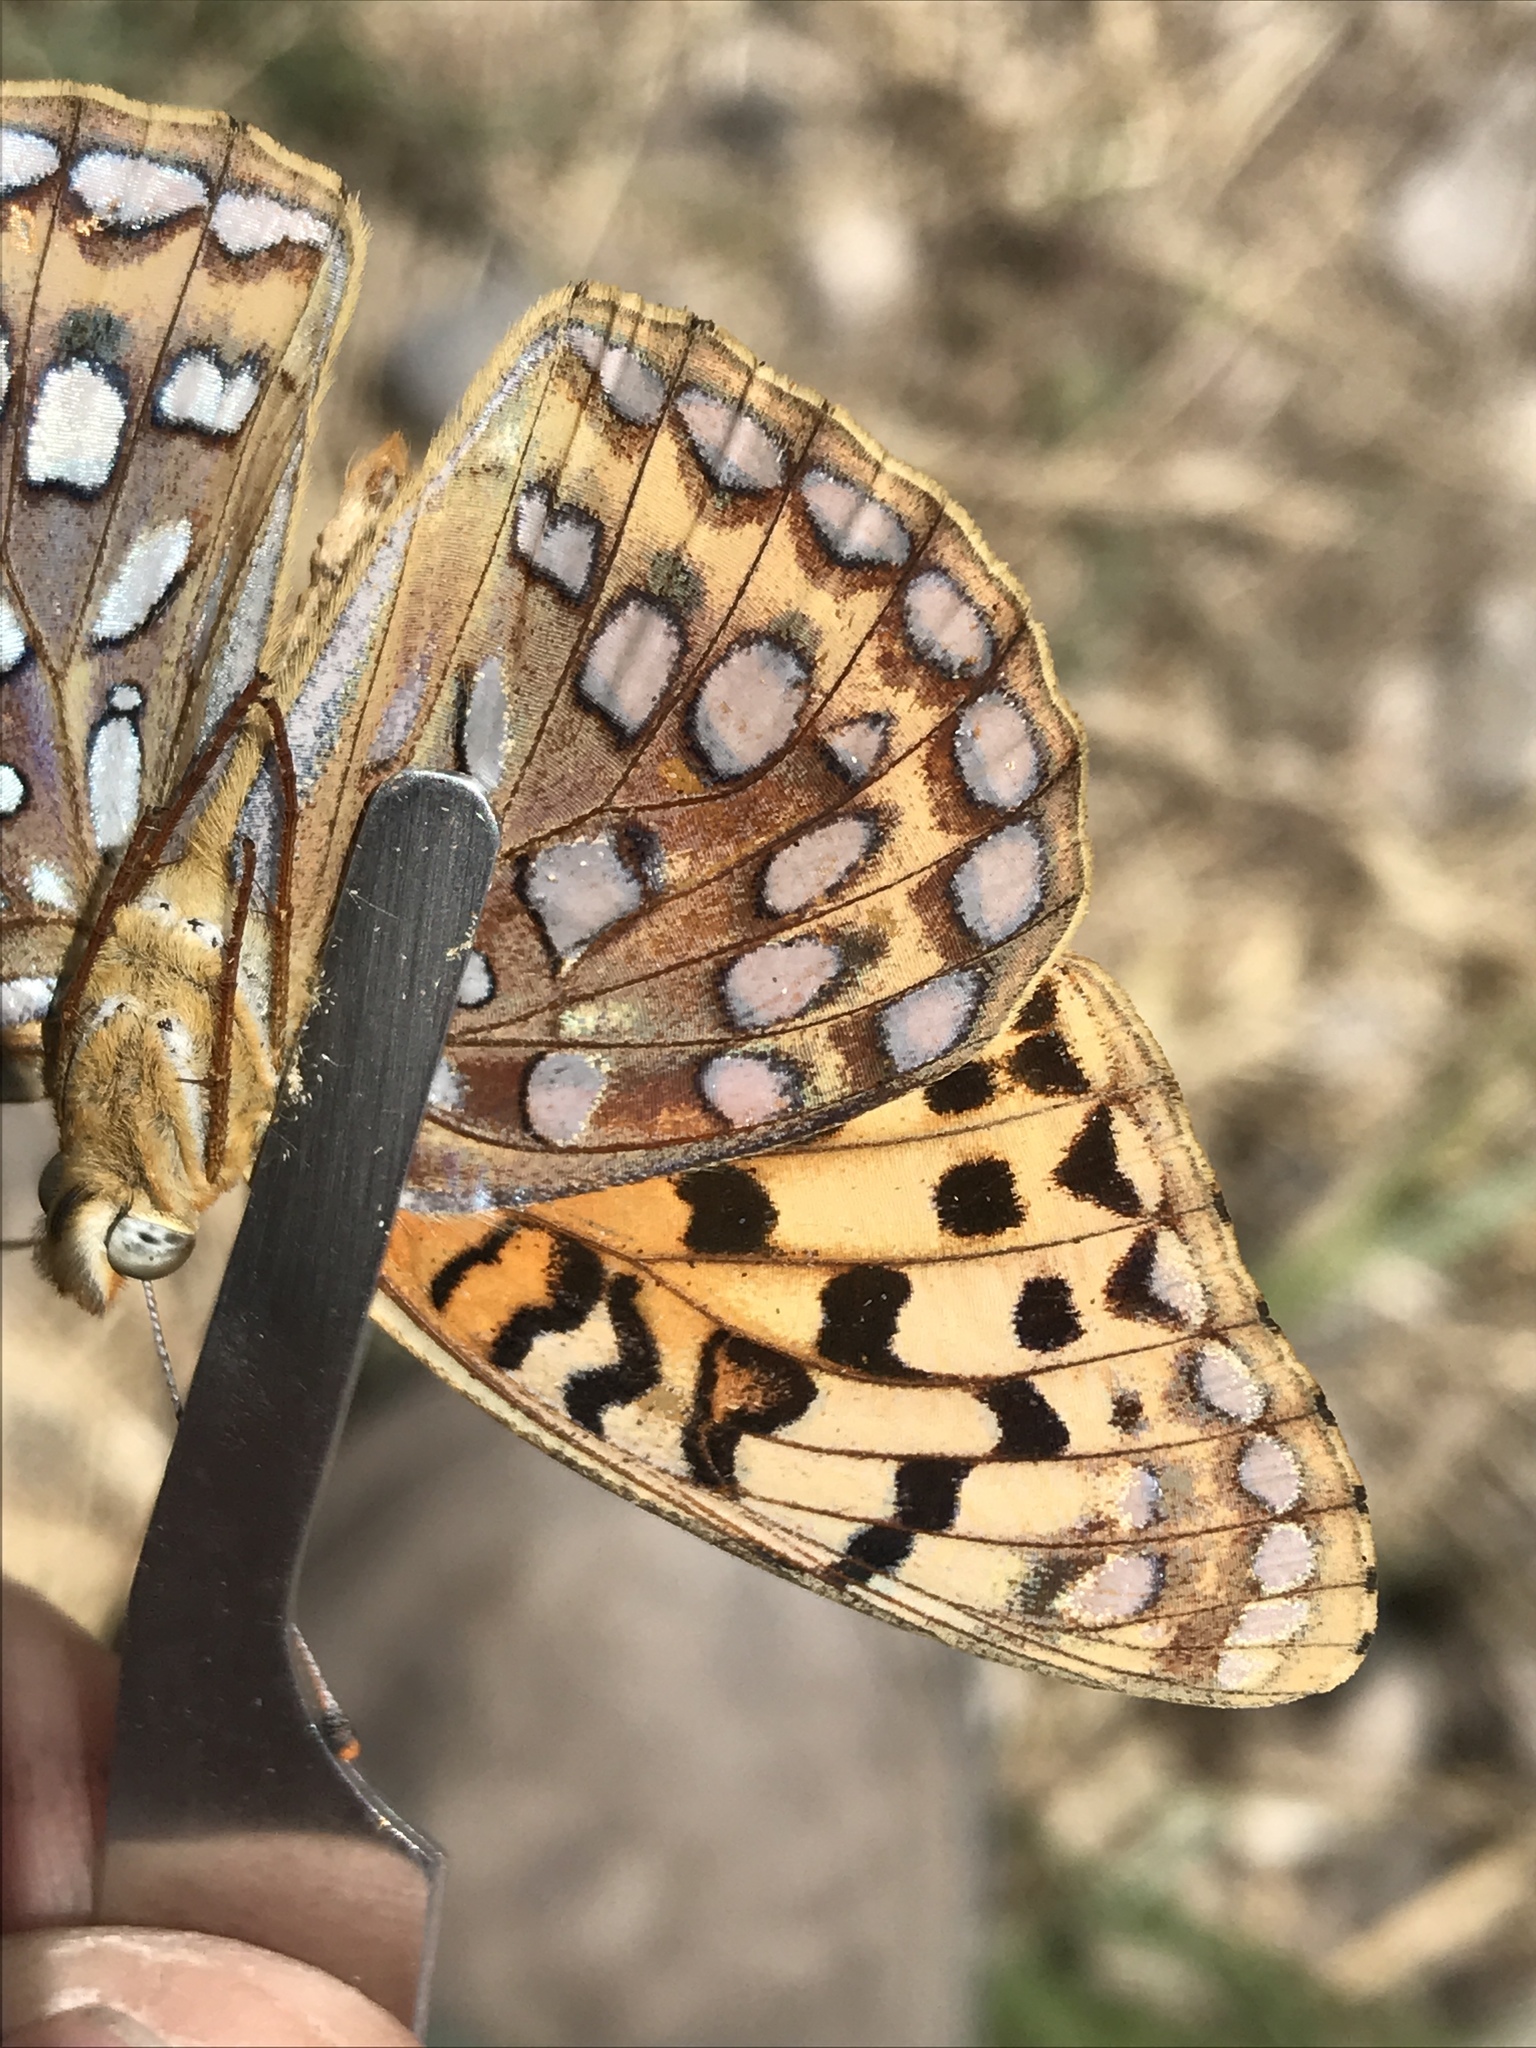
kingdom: Animalia
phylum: Arthropoda
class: Insecta
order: Lepidoptera
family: Nymphalidae
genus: Argynnis
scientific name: Argynnis coronis
